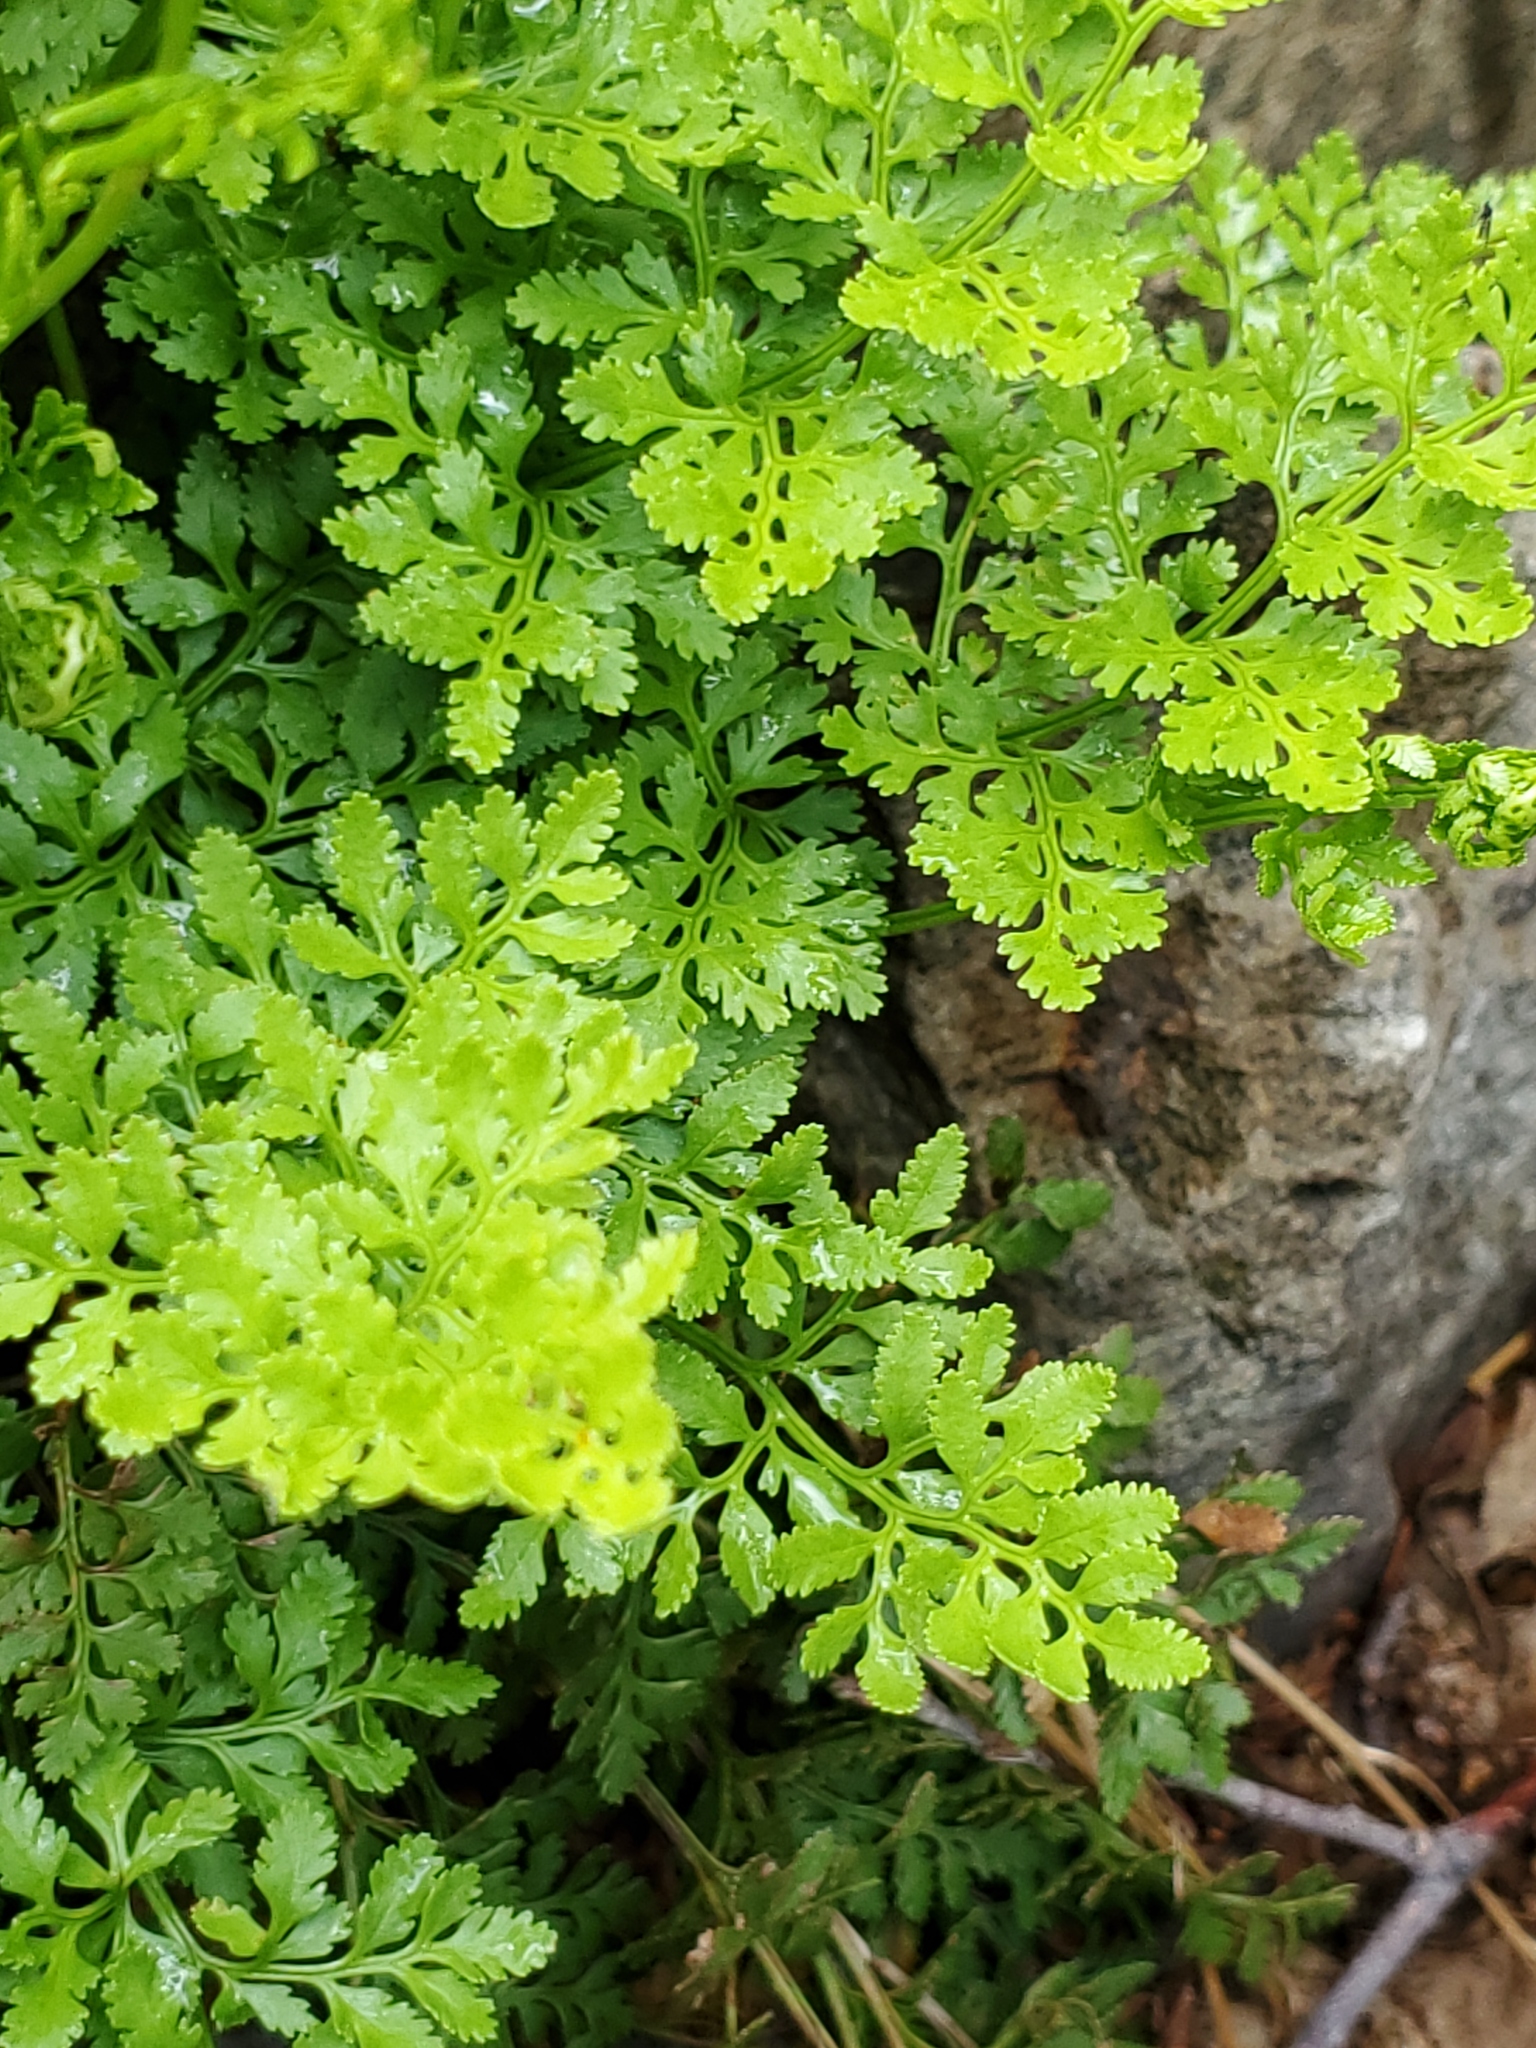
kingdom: Plantae
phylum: Tracheophyta
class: Polypodiopsida
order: Polypodiales
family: Pteridaceae
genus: Cryptogramma
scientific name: Cryptogramma acrostichoides
